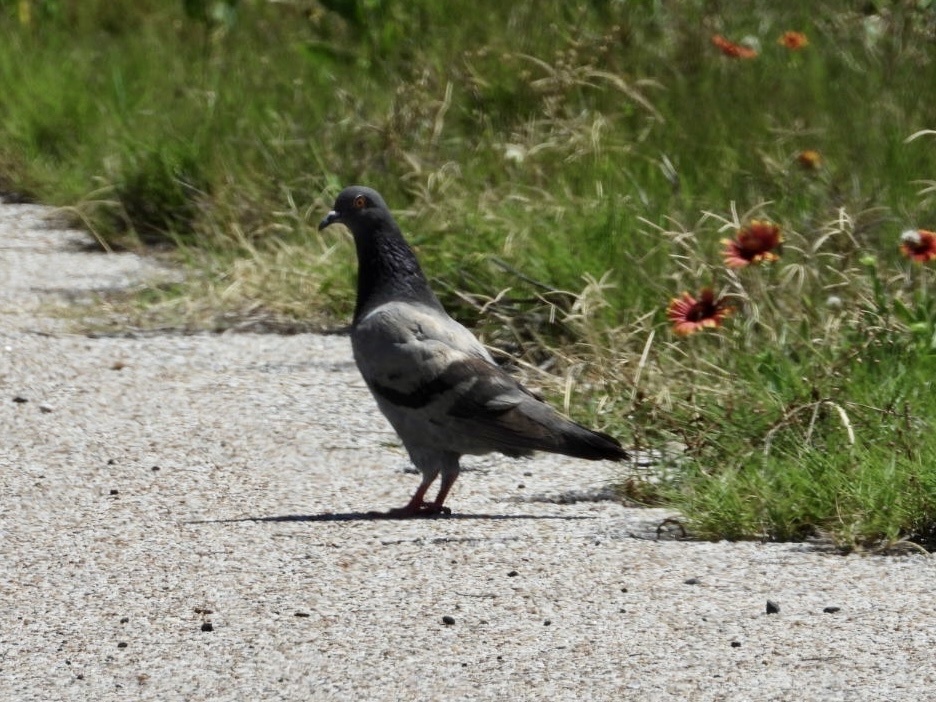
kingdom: Animalia
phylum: Chordata
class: Aves
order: Columbiformes
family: Columbidae
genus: Columba
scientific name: Columba livia
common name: Rock pigeon
